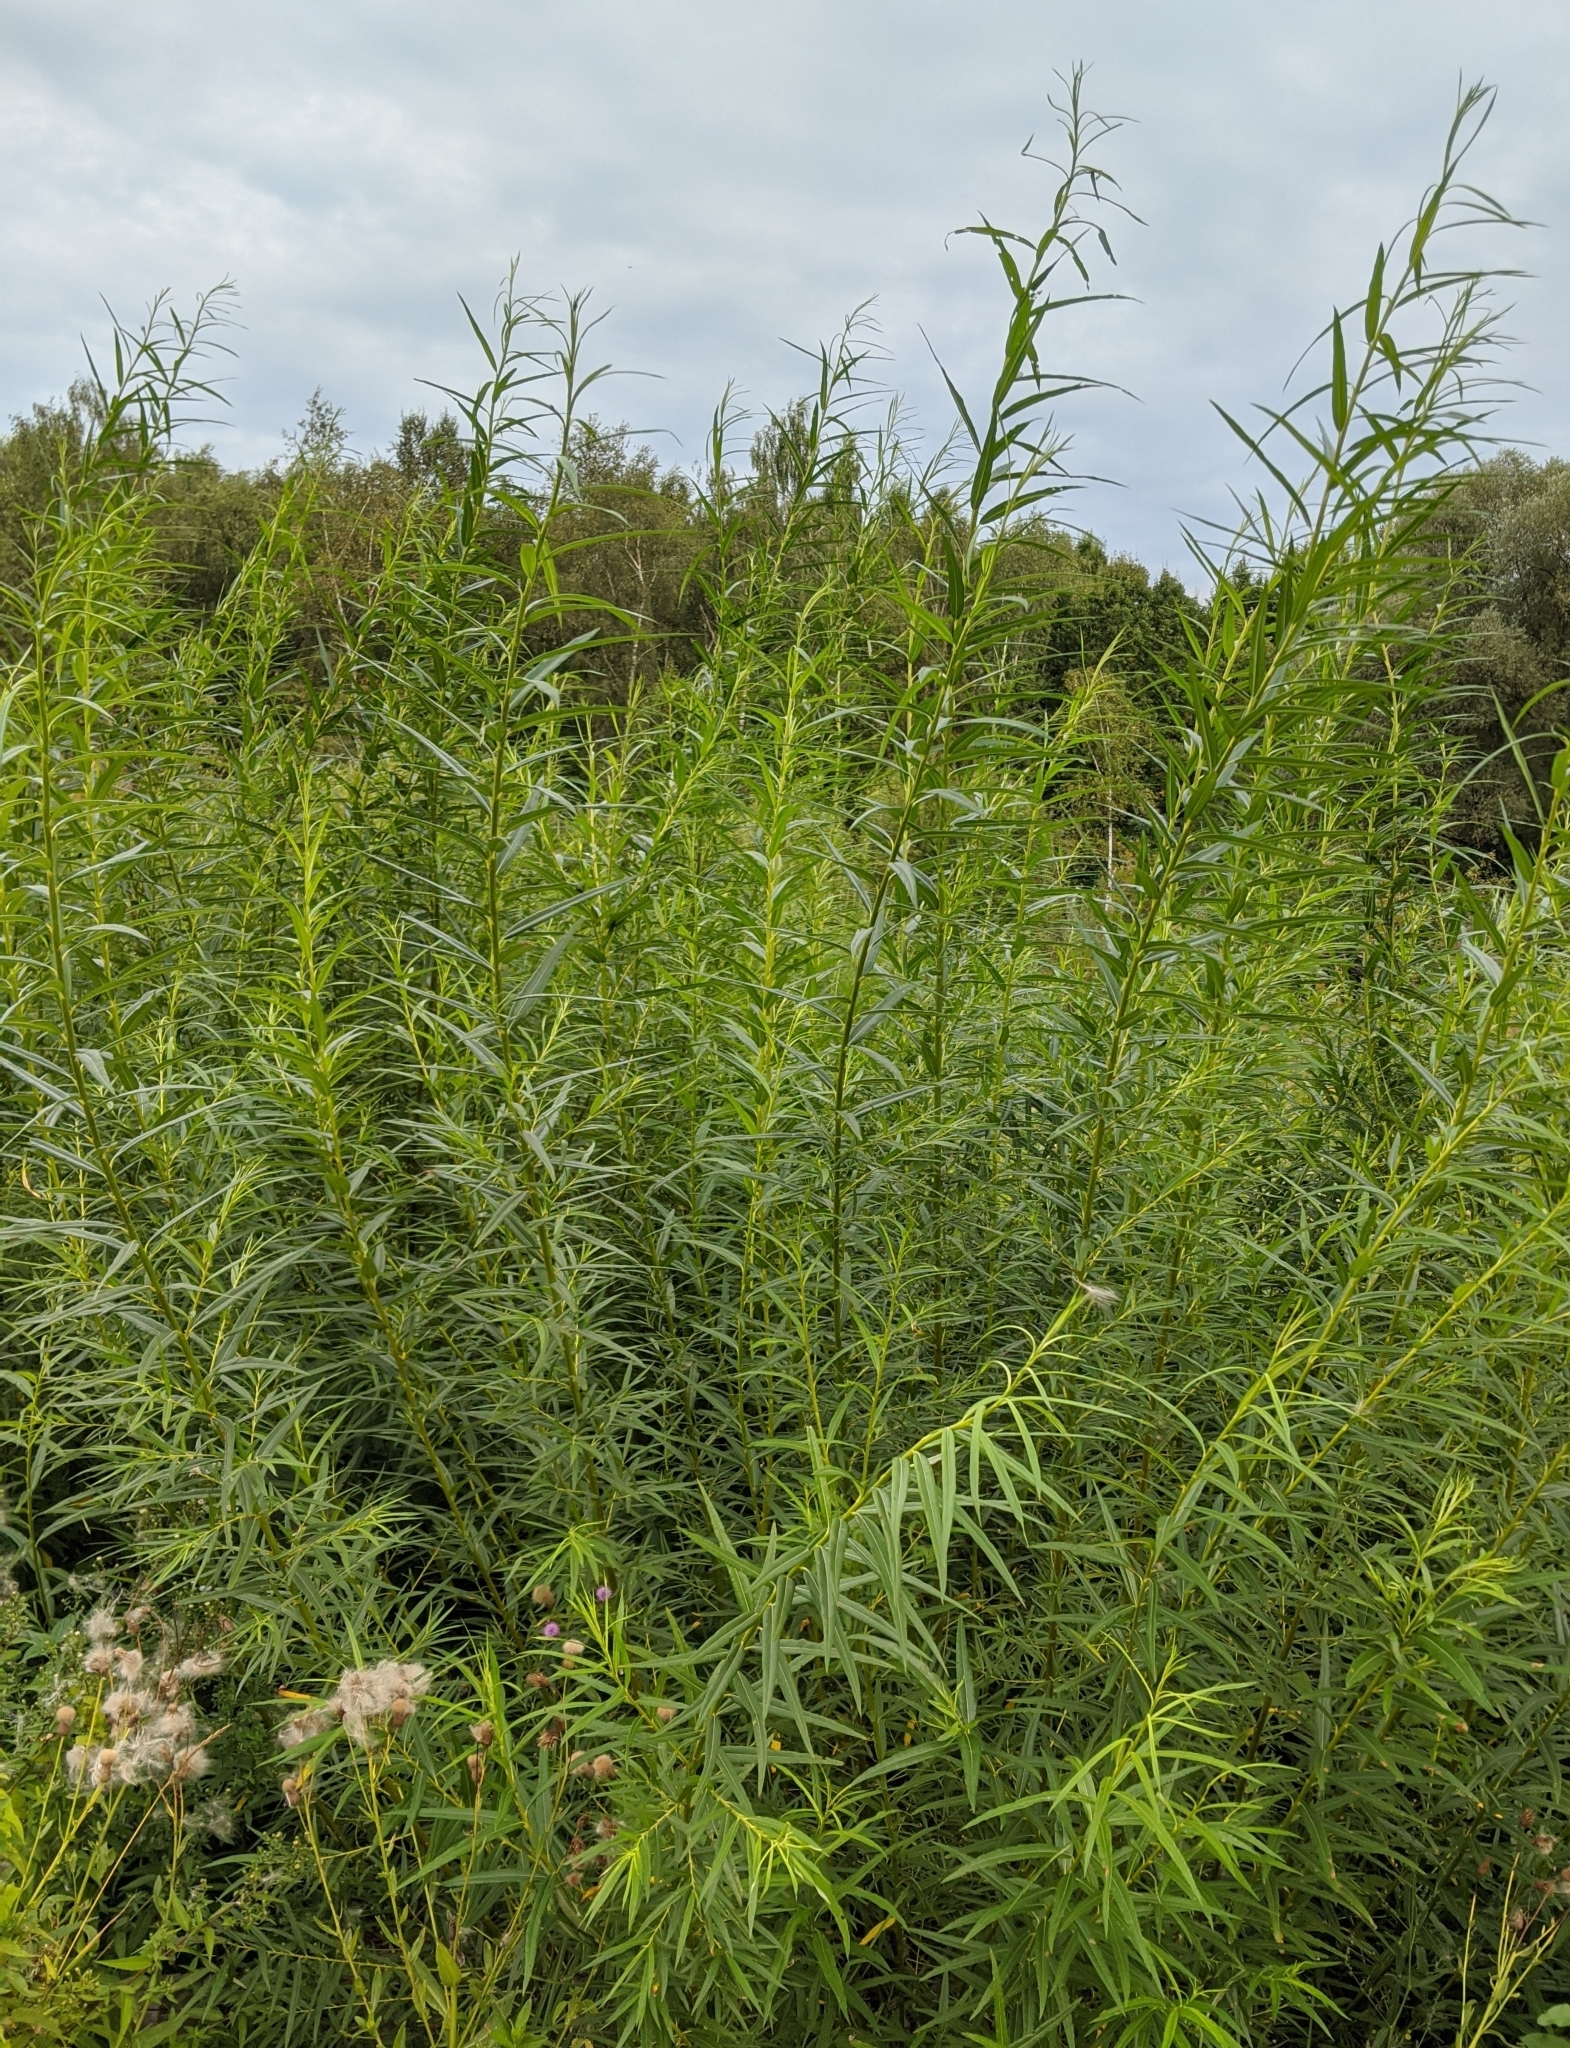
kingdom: Plantae
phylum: Tracheophyta
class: Magnoliopsida
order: Malpighiales
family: Salicaceae
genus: Salix
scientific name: Salix viminalis
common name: Osier
